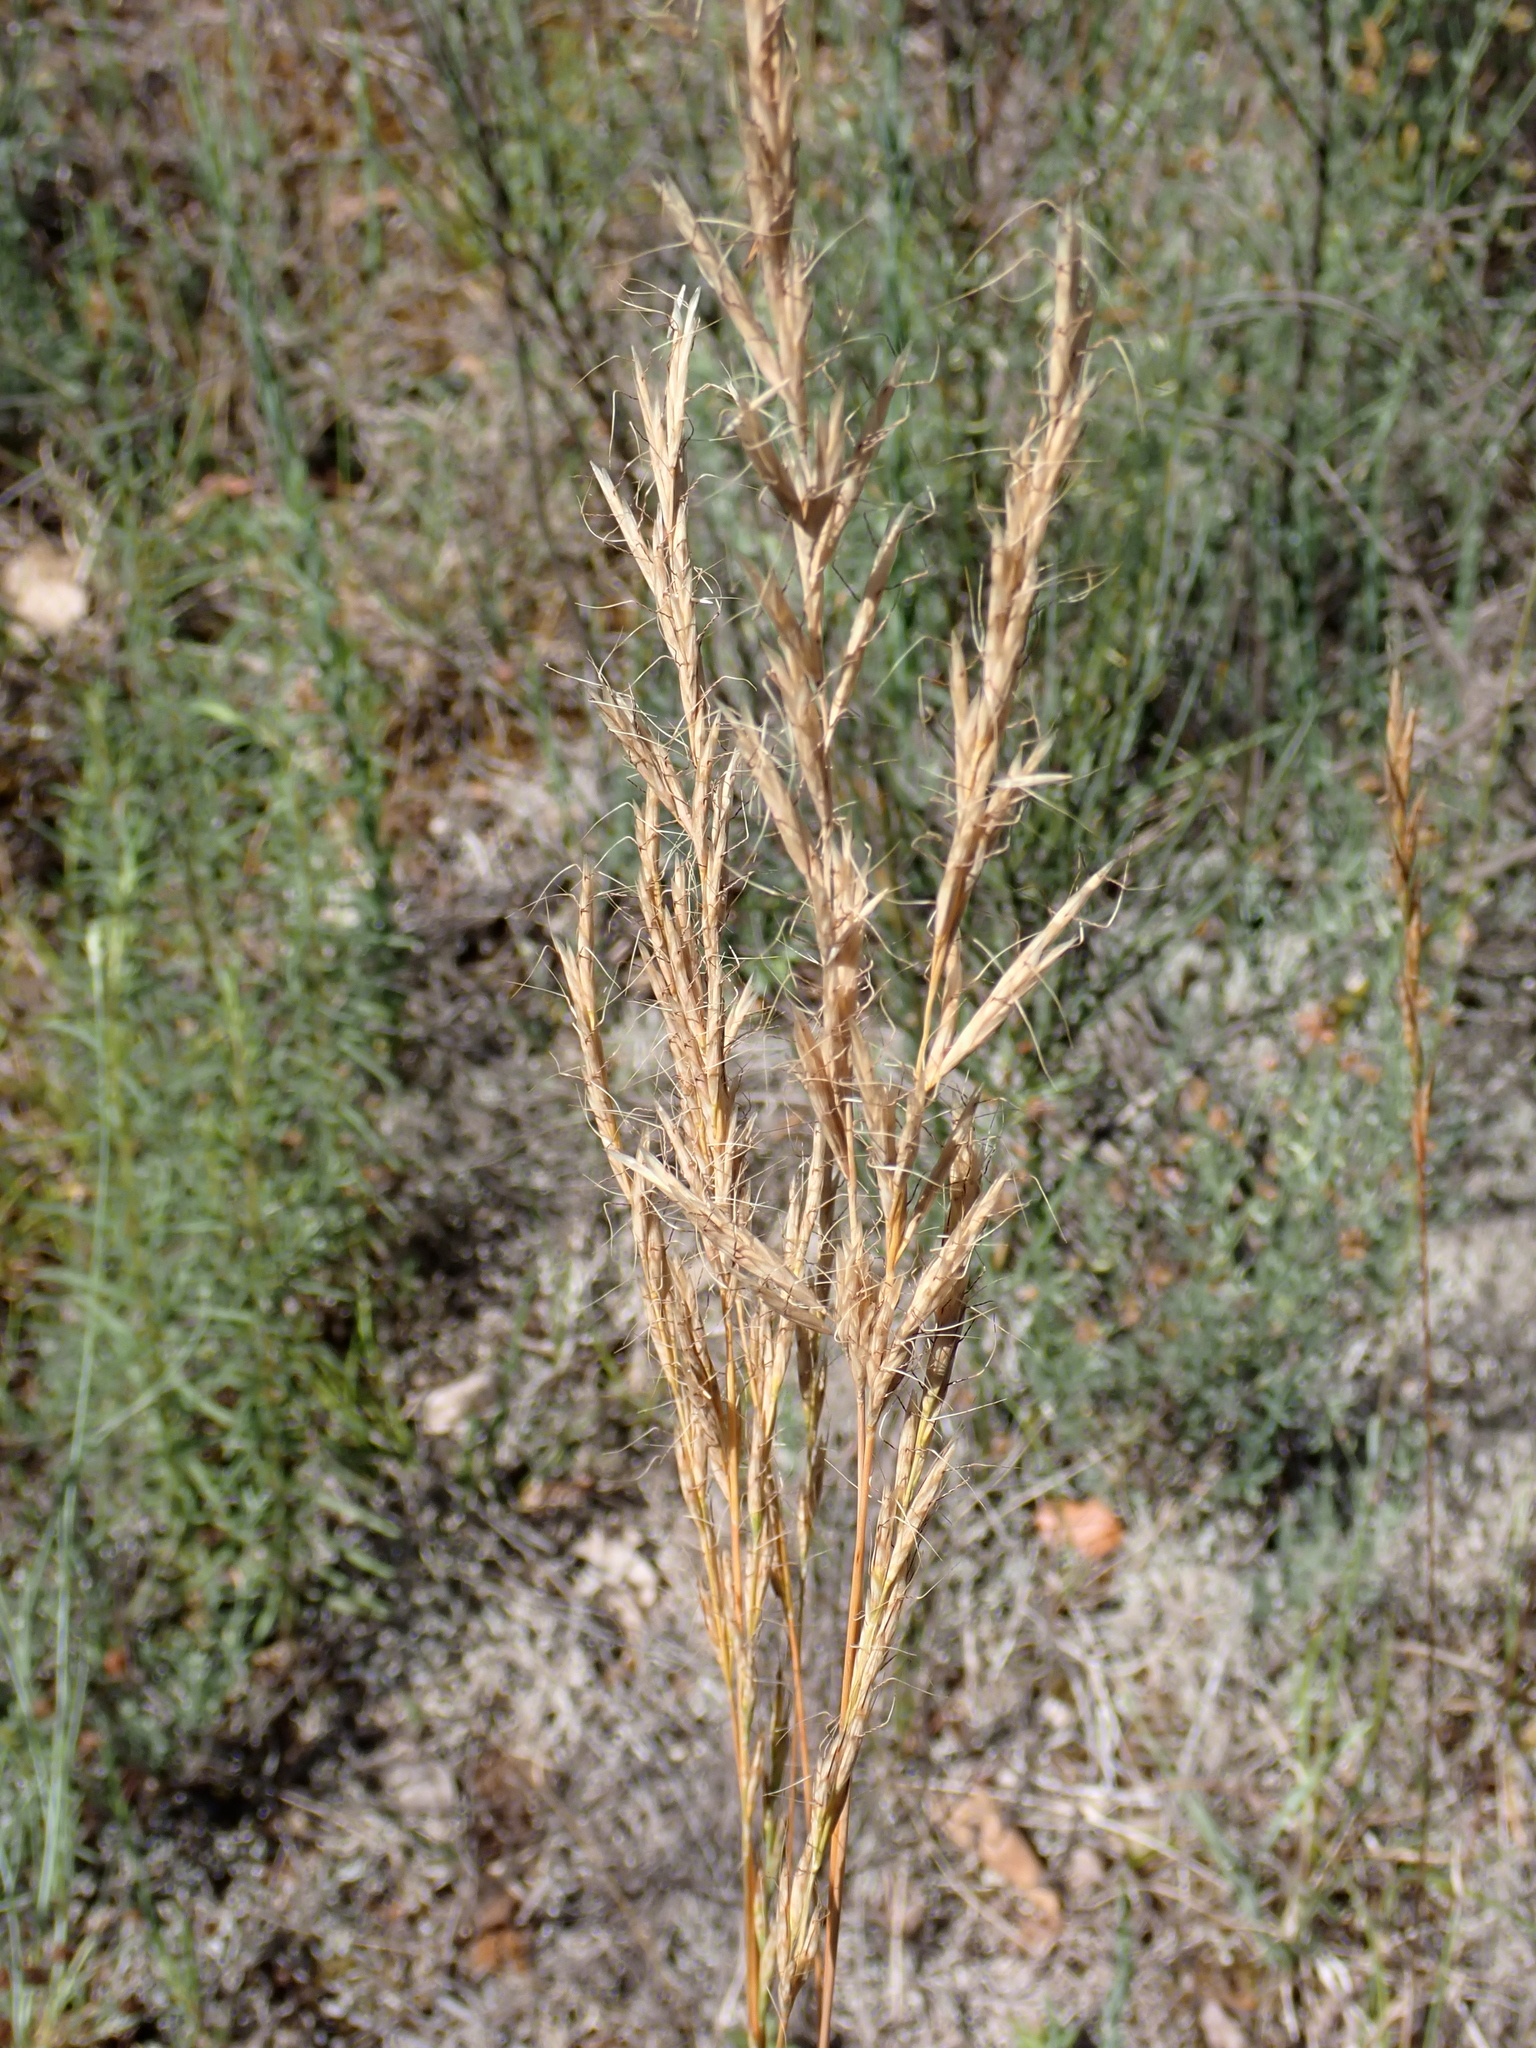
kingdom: Plantae
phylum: Tracheophyta
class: Liliopsida
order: Poales
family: Poaceae
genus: Helictochloa
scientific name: Helictochloa bromoides
